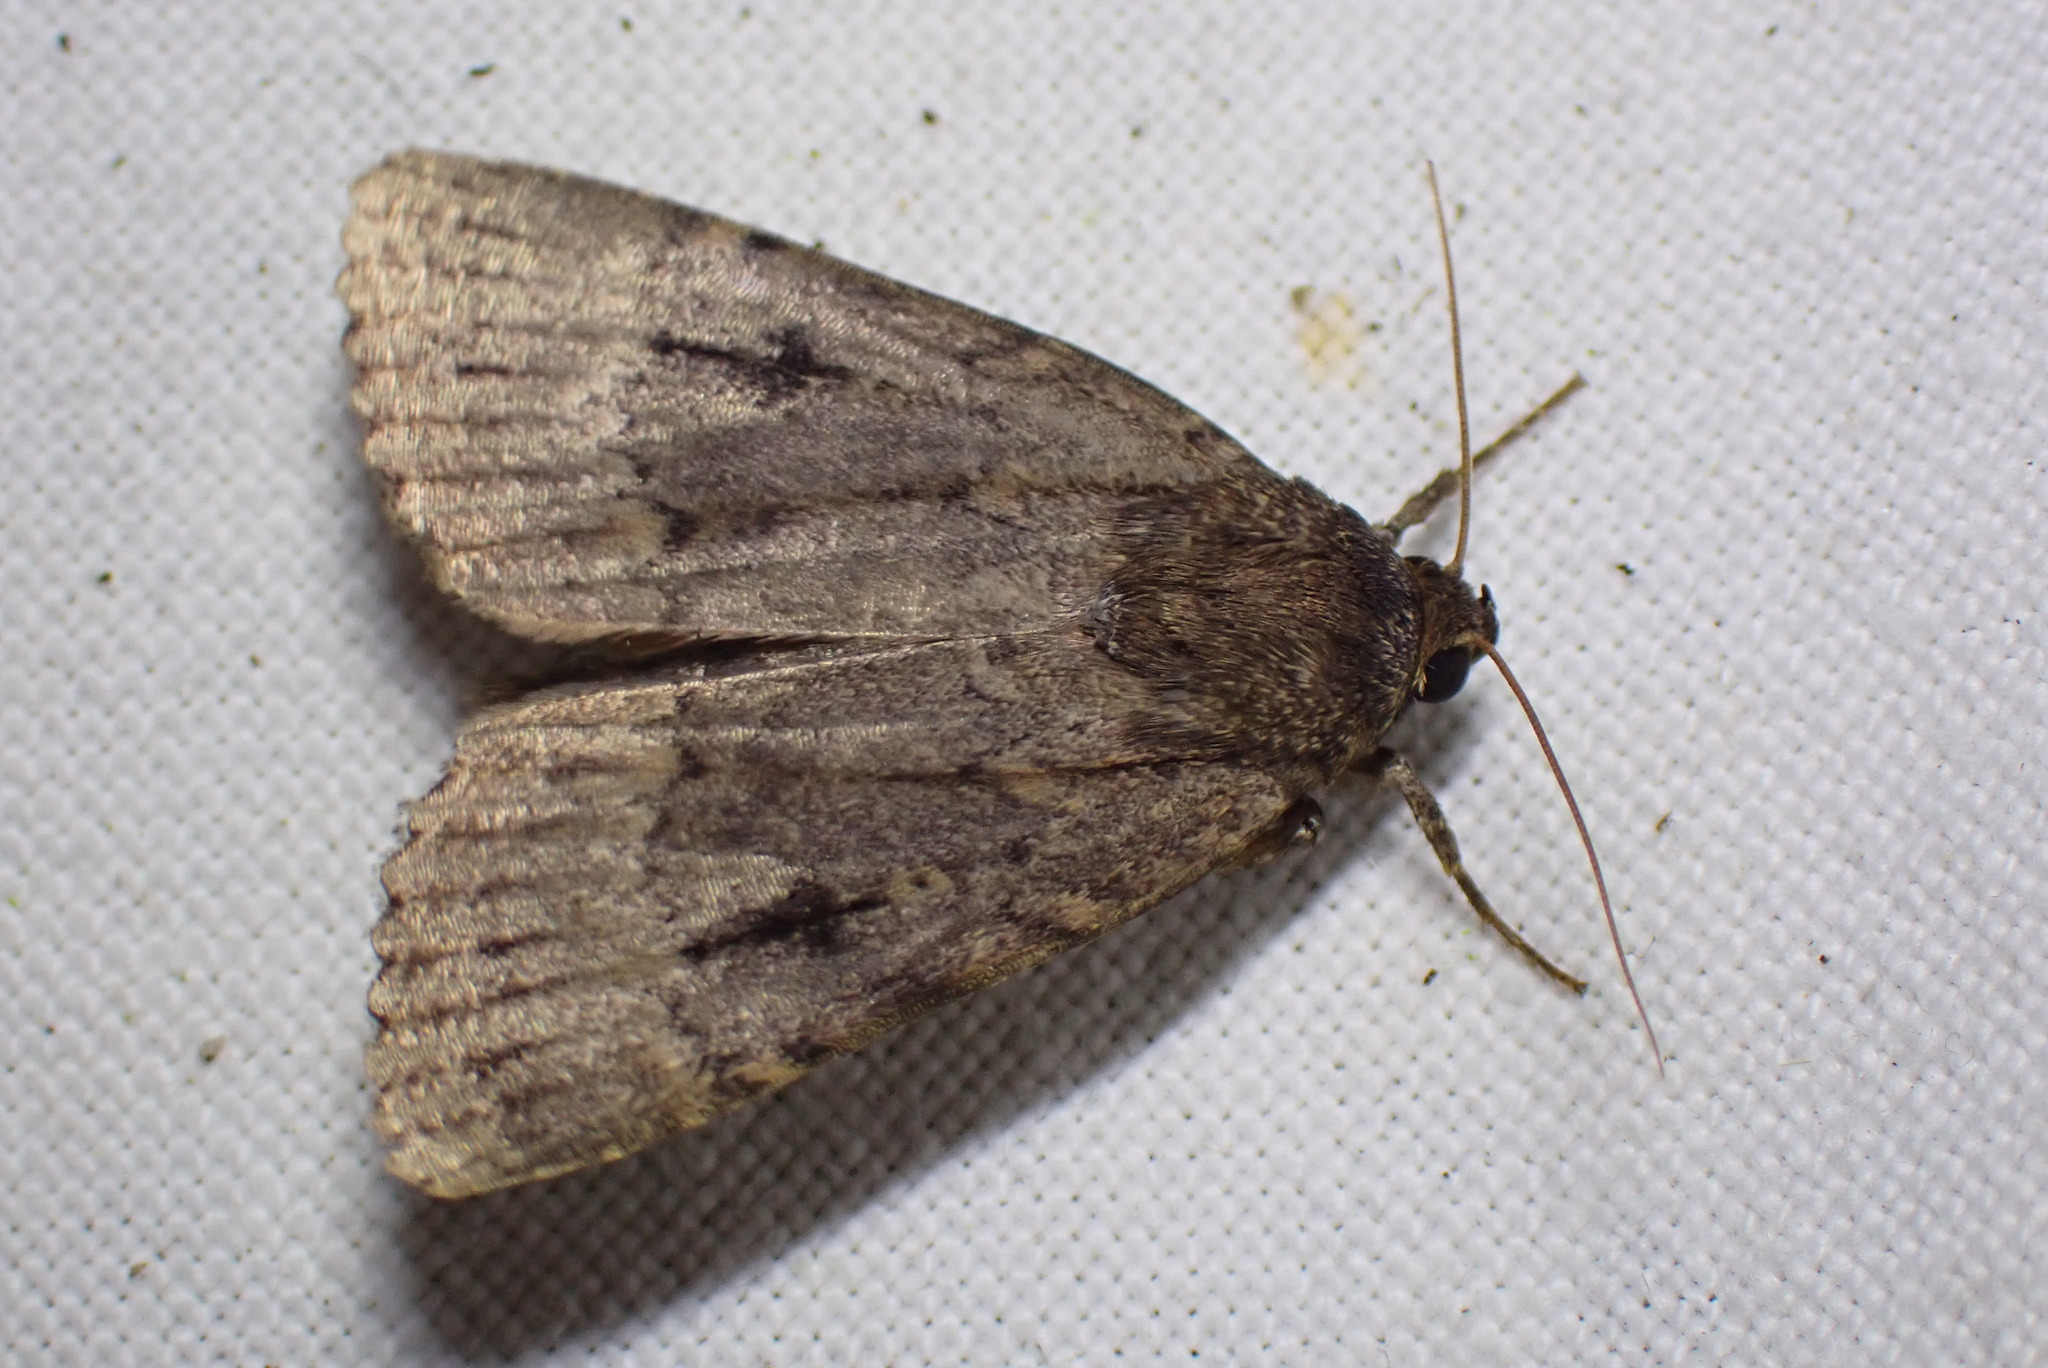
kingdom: Animalia
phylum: Arthropoda
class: Insecta
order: Lepidoptera
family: Noctuidae
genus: Amphipyra
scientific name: Amphipyra pyramidea
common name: Copper underwing
